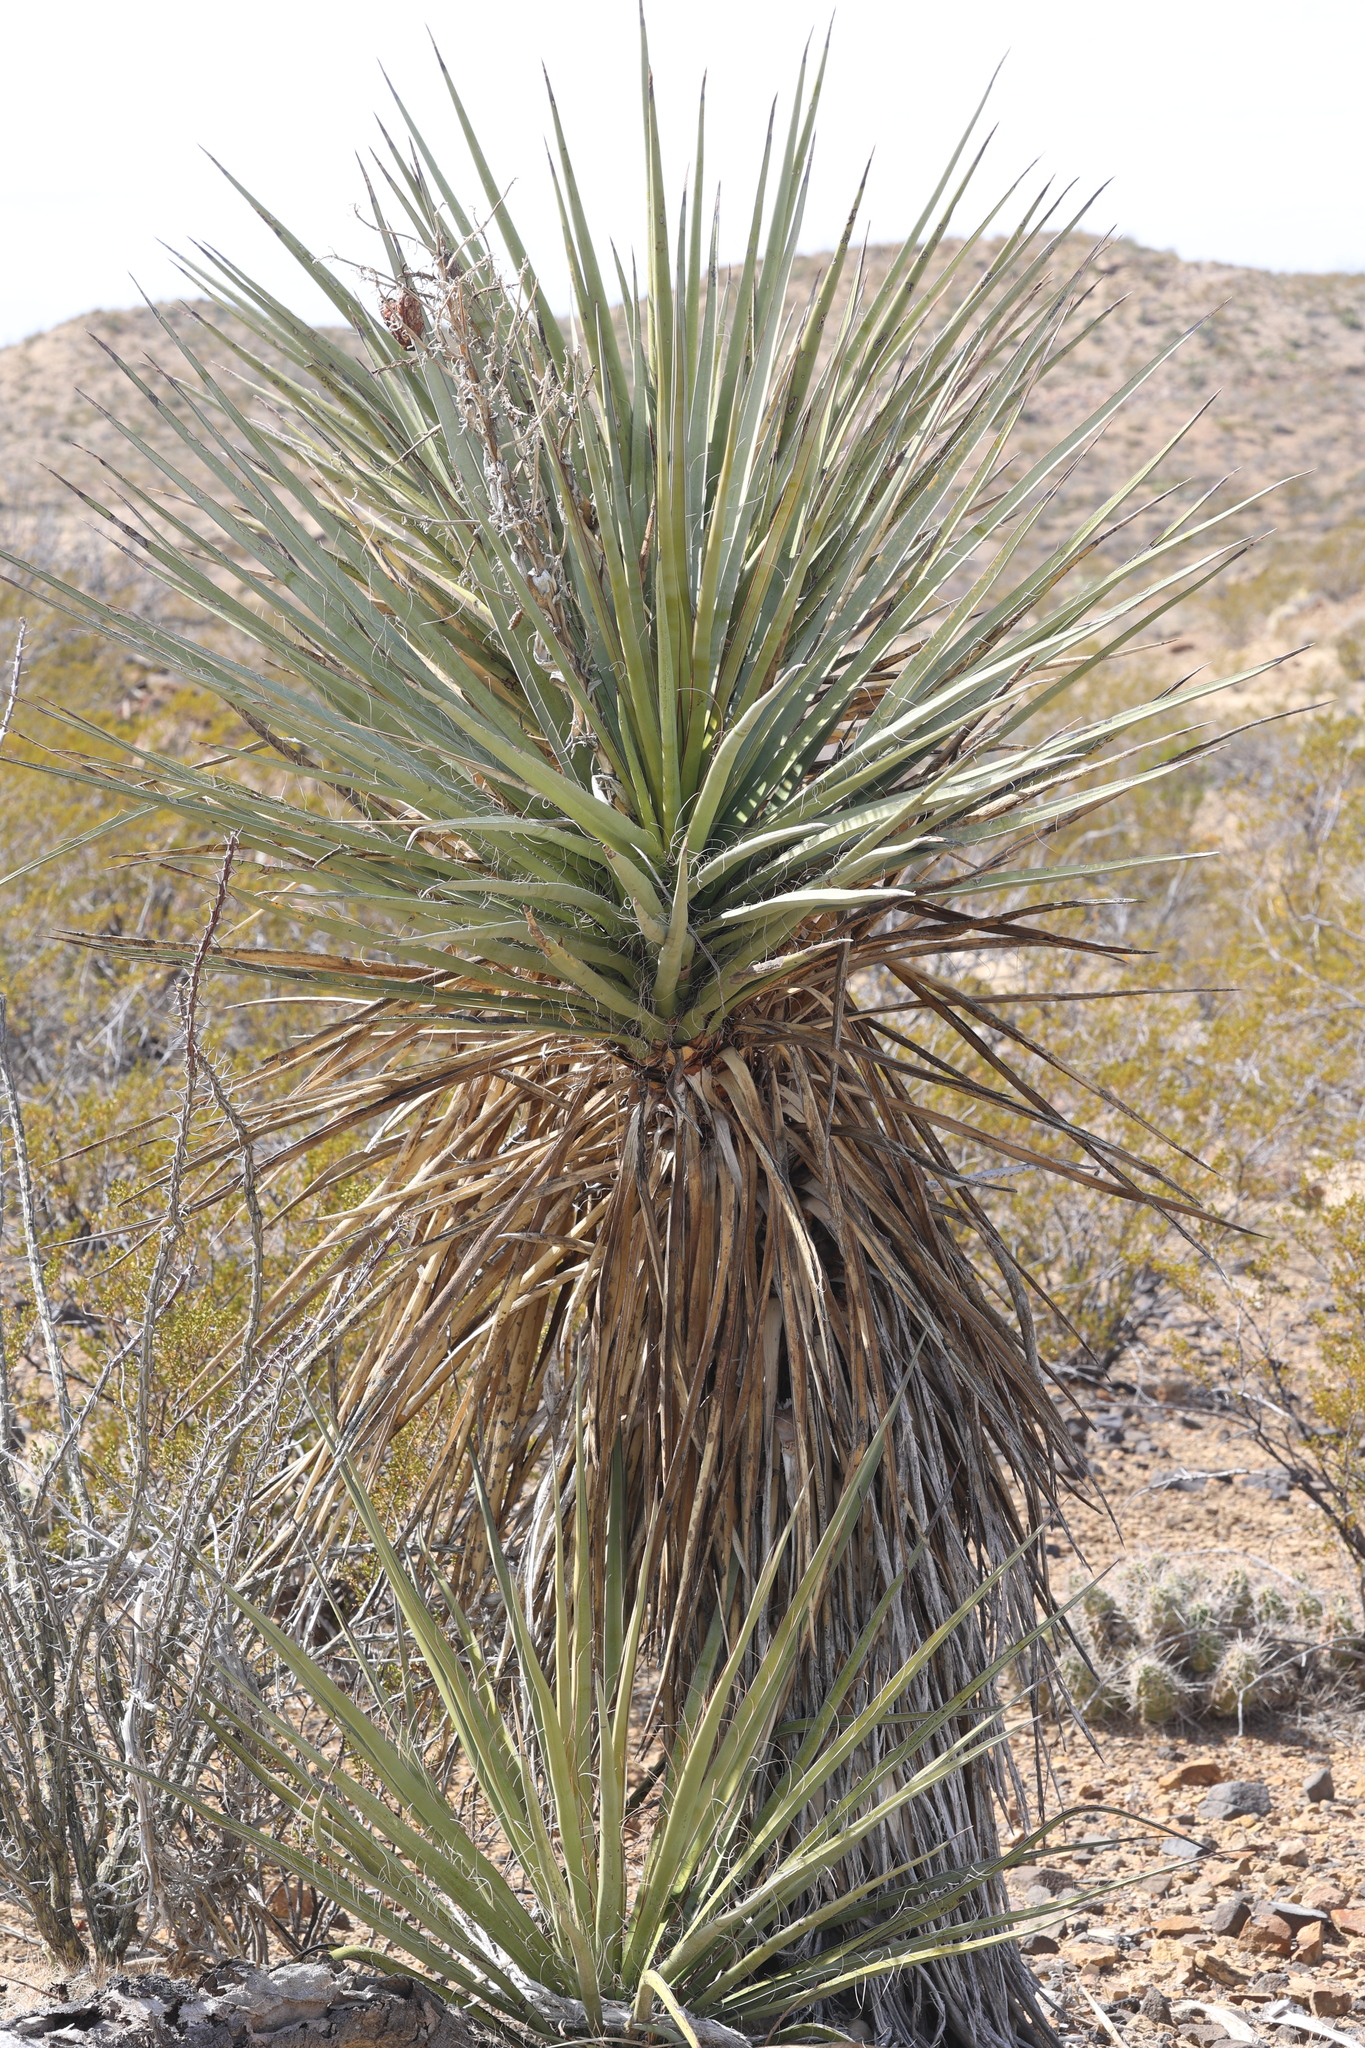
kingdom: Plantae
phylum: Tracheophyta
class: Liliopsida
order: Asparagales
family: Asparagaceae
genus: Yucca
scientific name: Yucca treculiana
